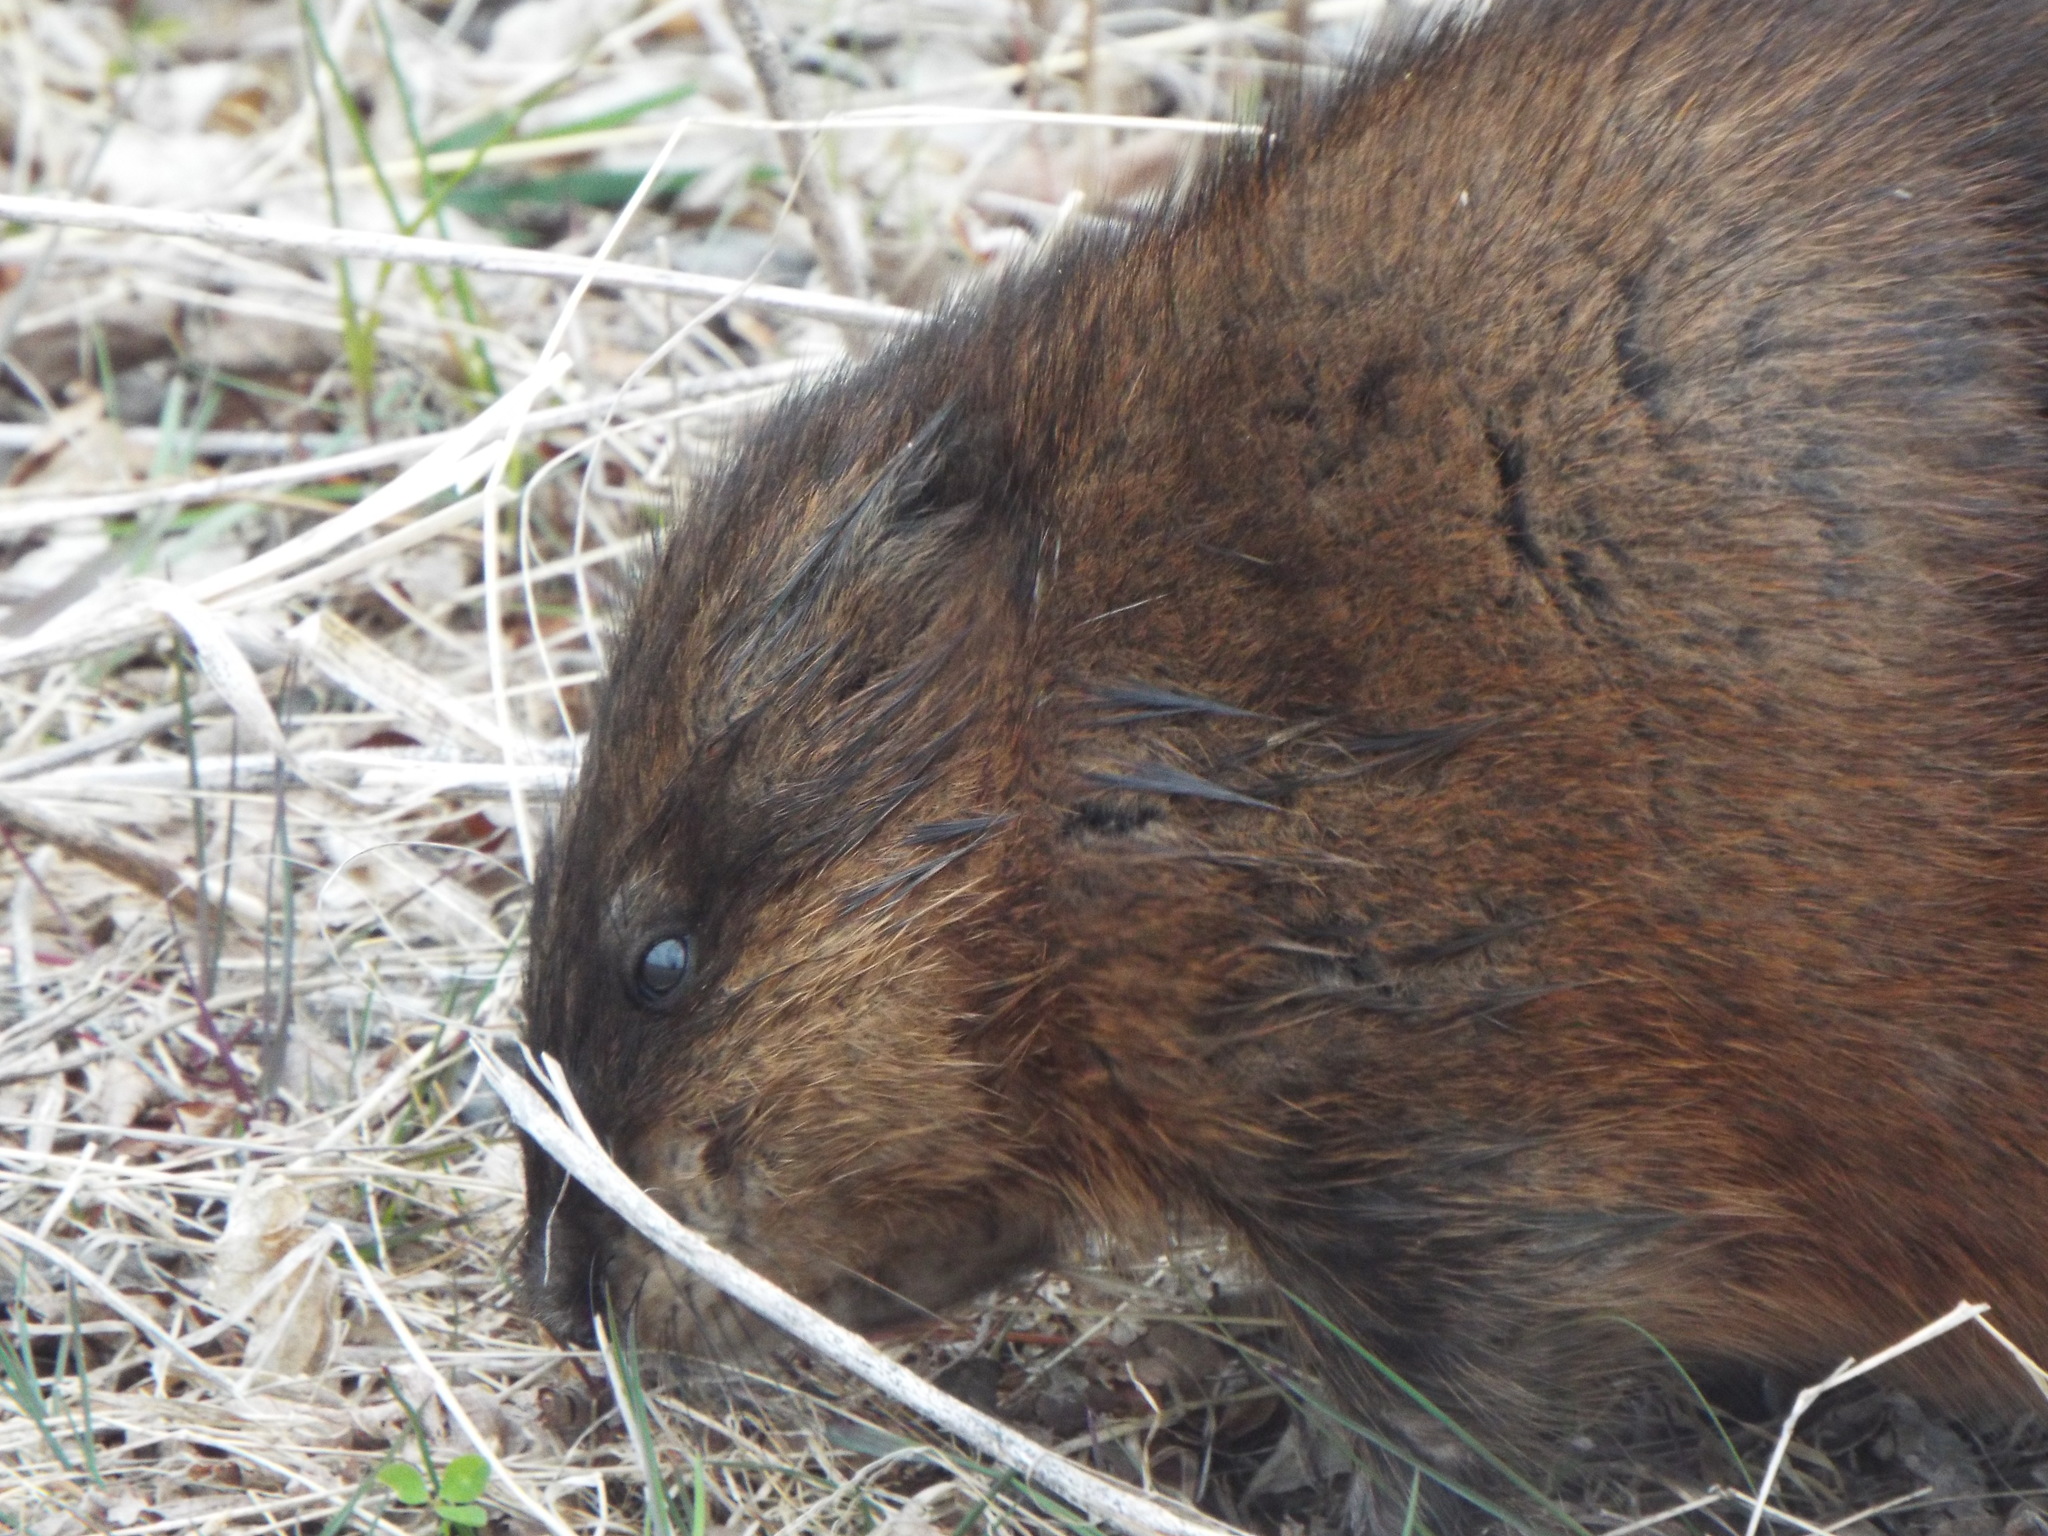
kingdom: Animalia
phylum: Chordata
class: Mammalia
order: Rodentia
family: Cricetidae
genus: Ondatra
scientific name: Ondatra zibethicus
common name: Muskrat
